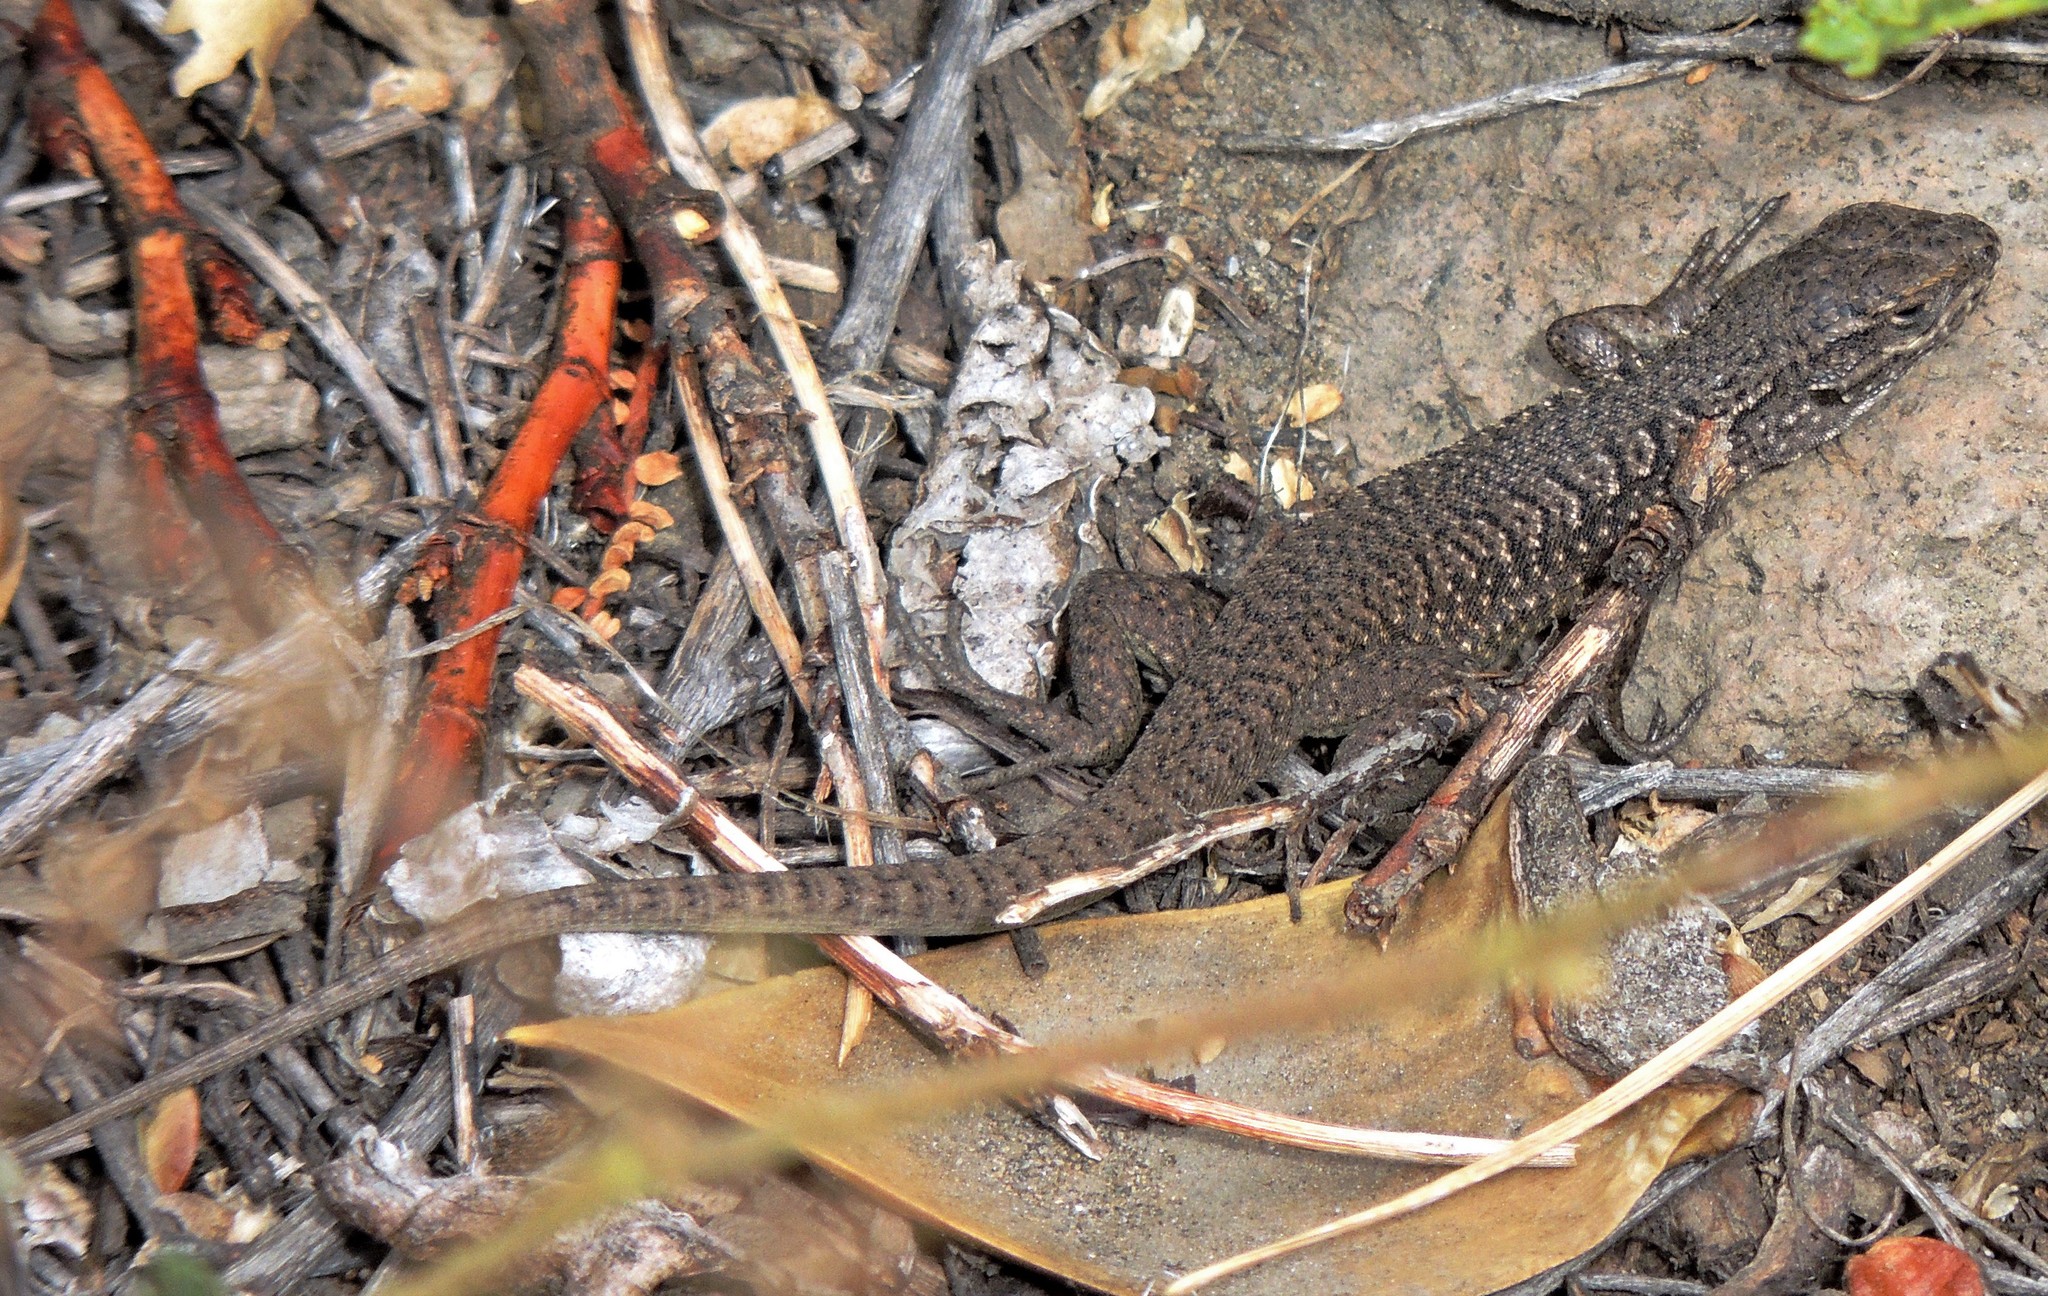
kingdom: Animalia
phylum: Chordata
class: Squamata
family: Liolaemidae
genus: Liolaemus
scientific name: Liolaemus neuquensis
